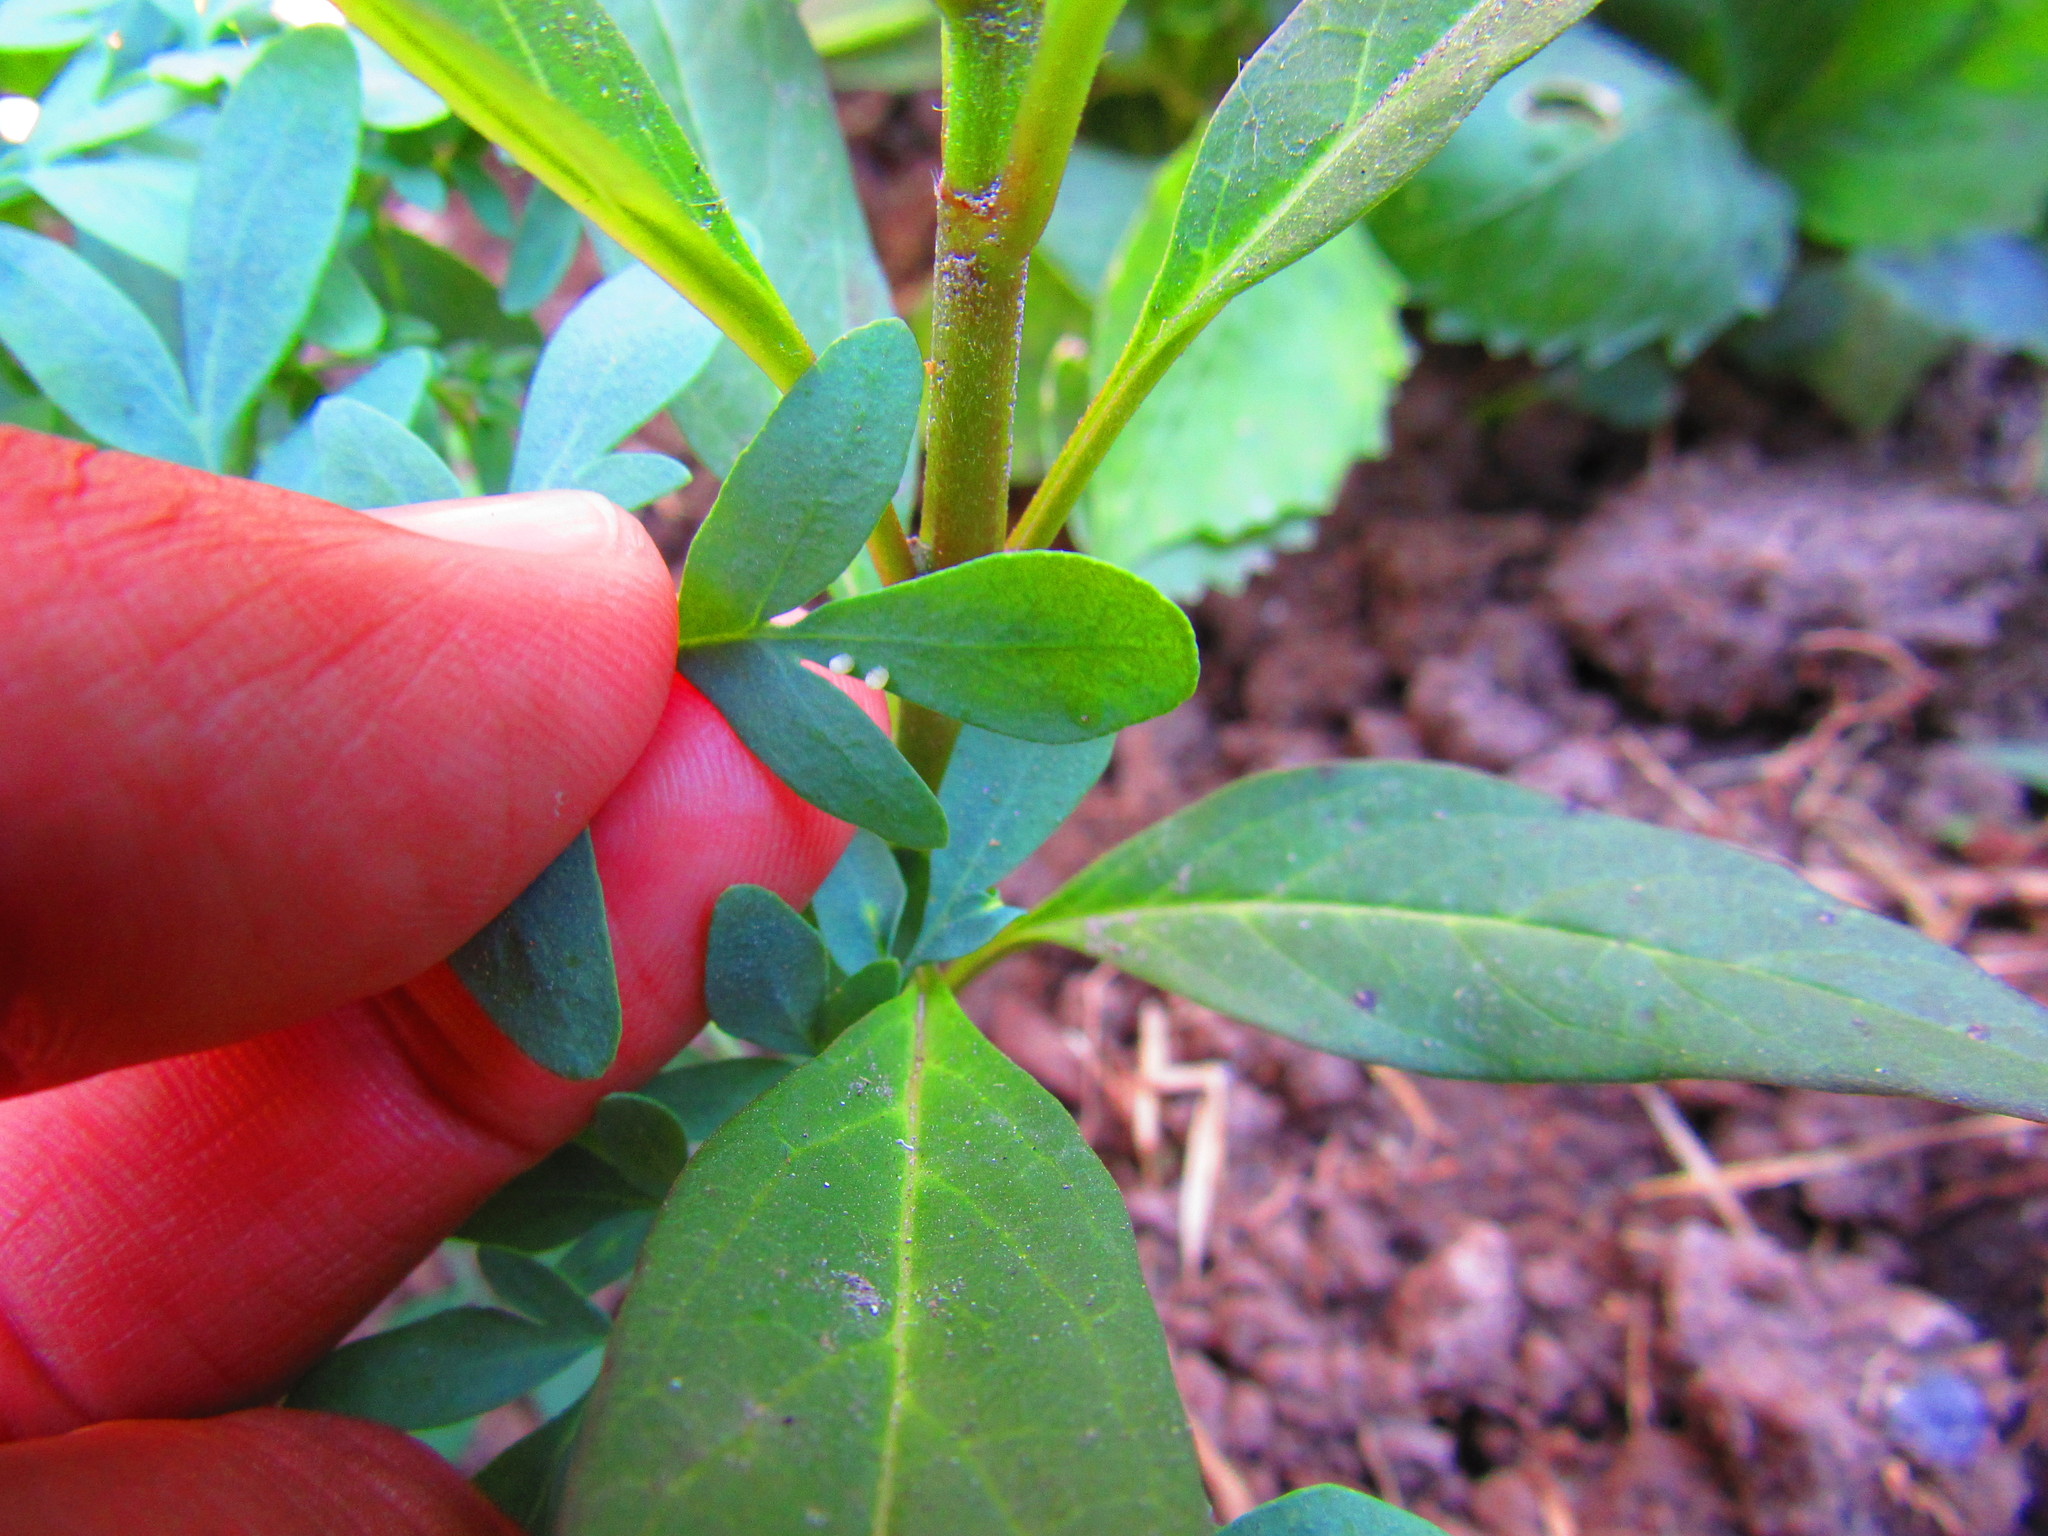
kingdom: Animalia
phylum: Arthropoda
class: Insecta
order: Lepidoptera
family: Nymphalidae
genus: Danaus
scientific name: Danaus plexippus
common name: Monarch
